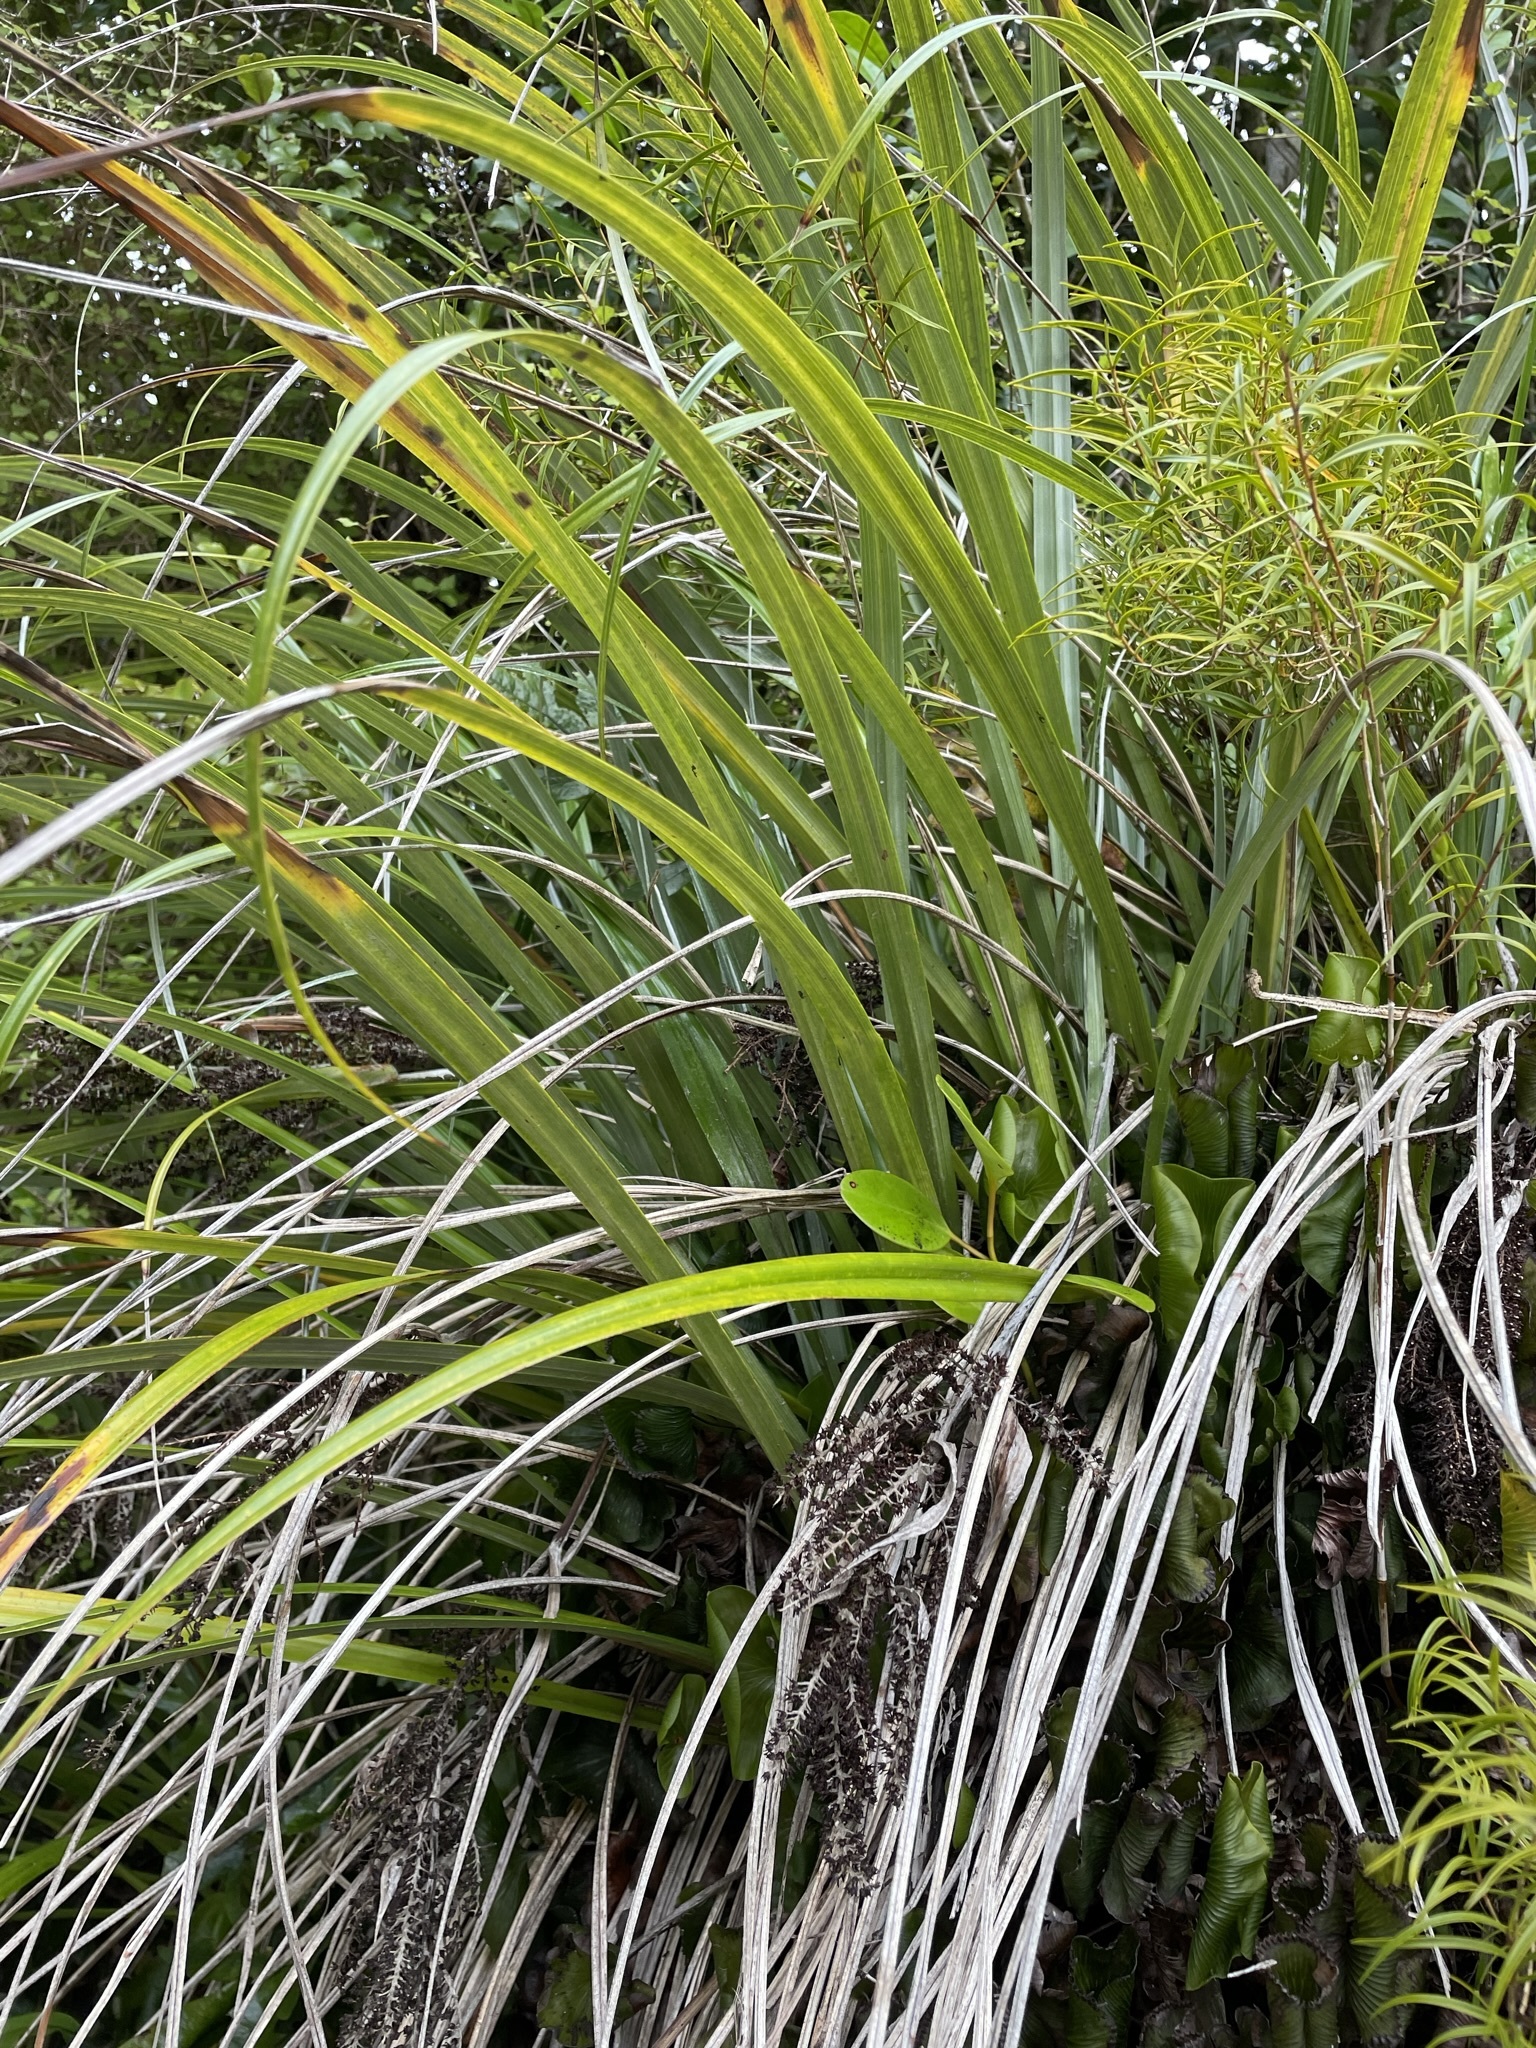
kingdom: Plantae
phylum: Tracheophyta
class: Liliopsida
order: Asparagales
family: Asteliaceae
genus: Astelia
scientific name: Astelia solandri
